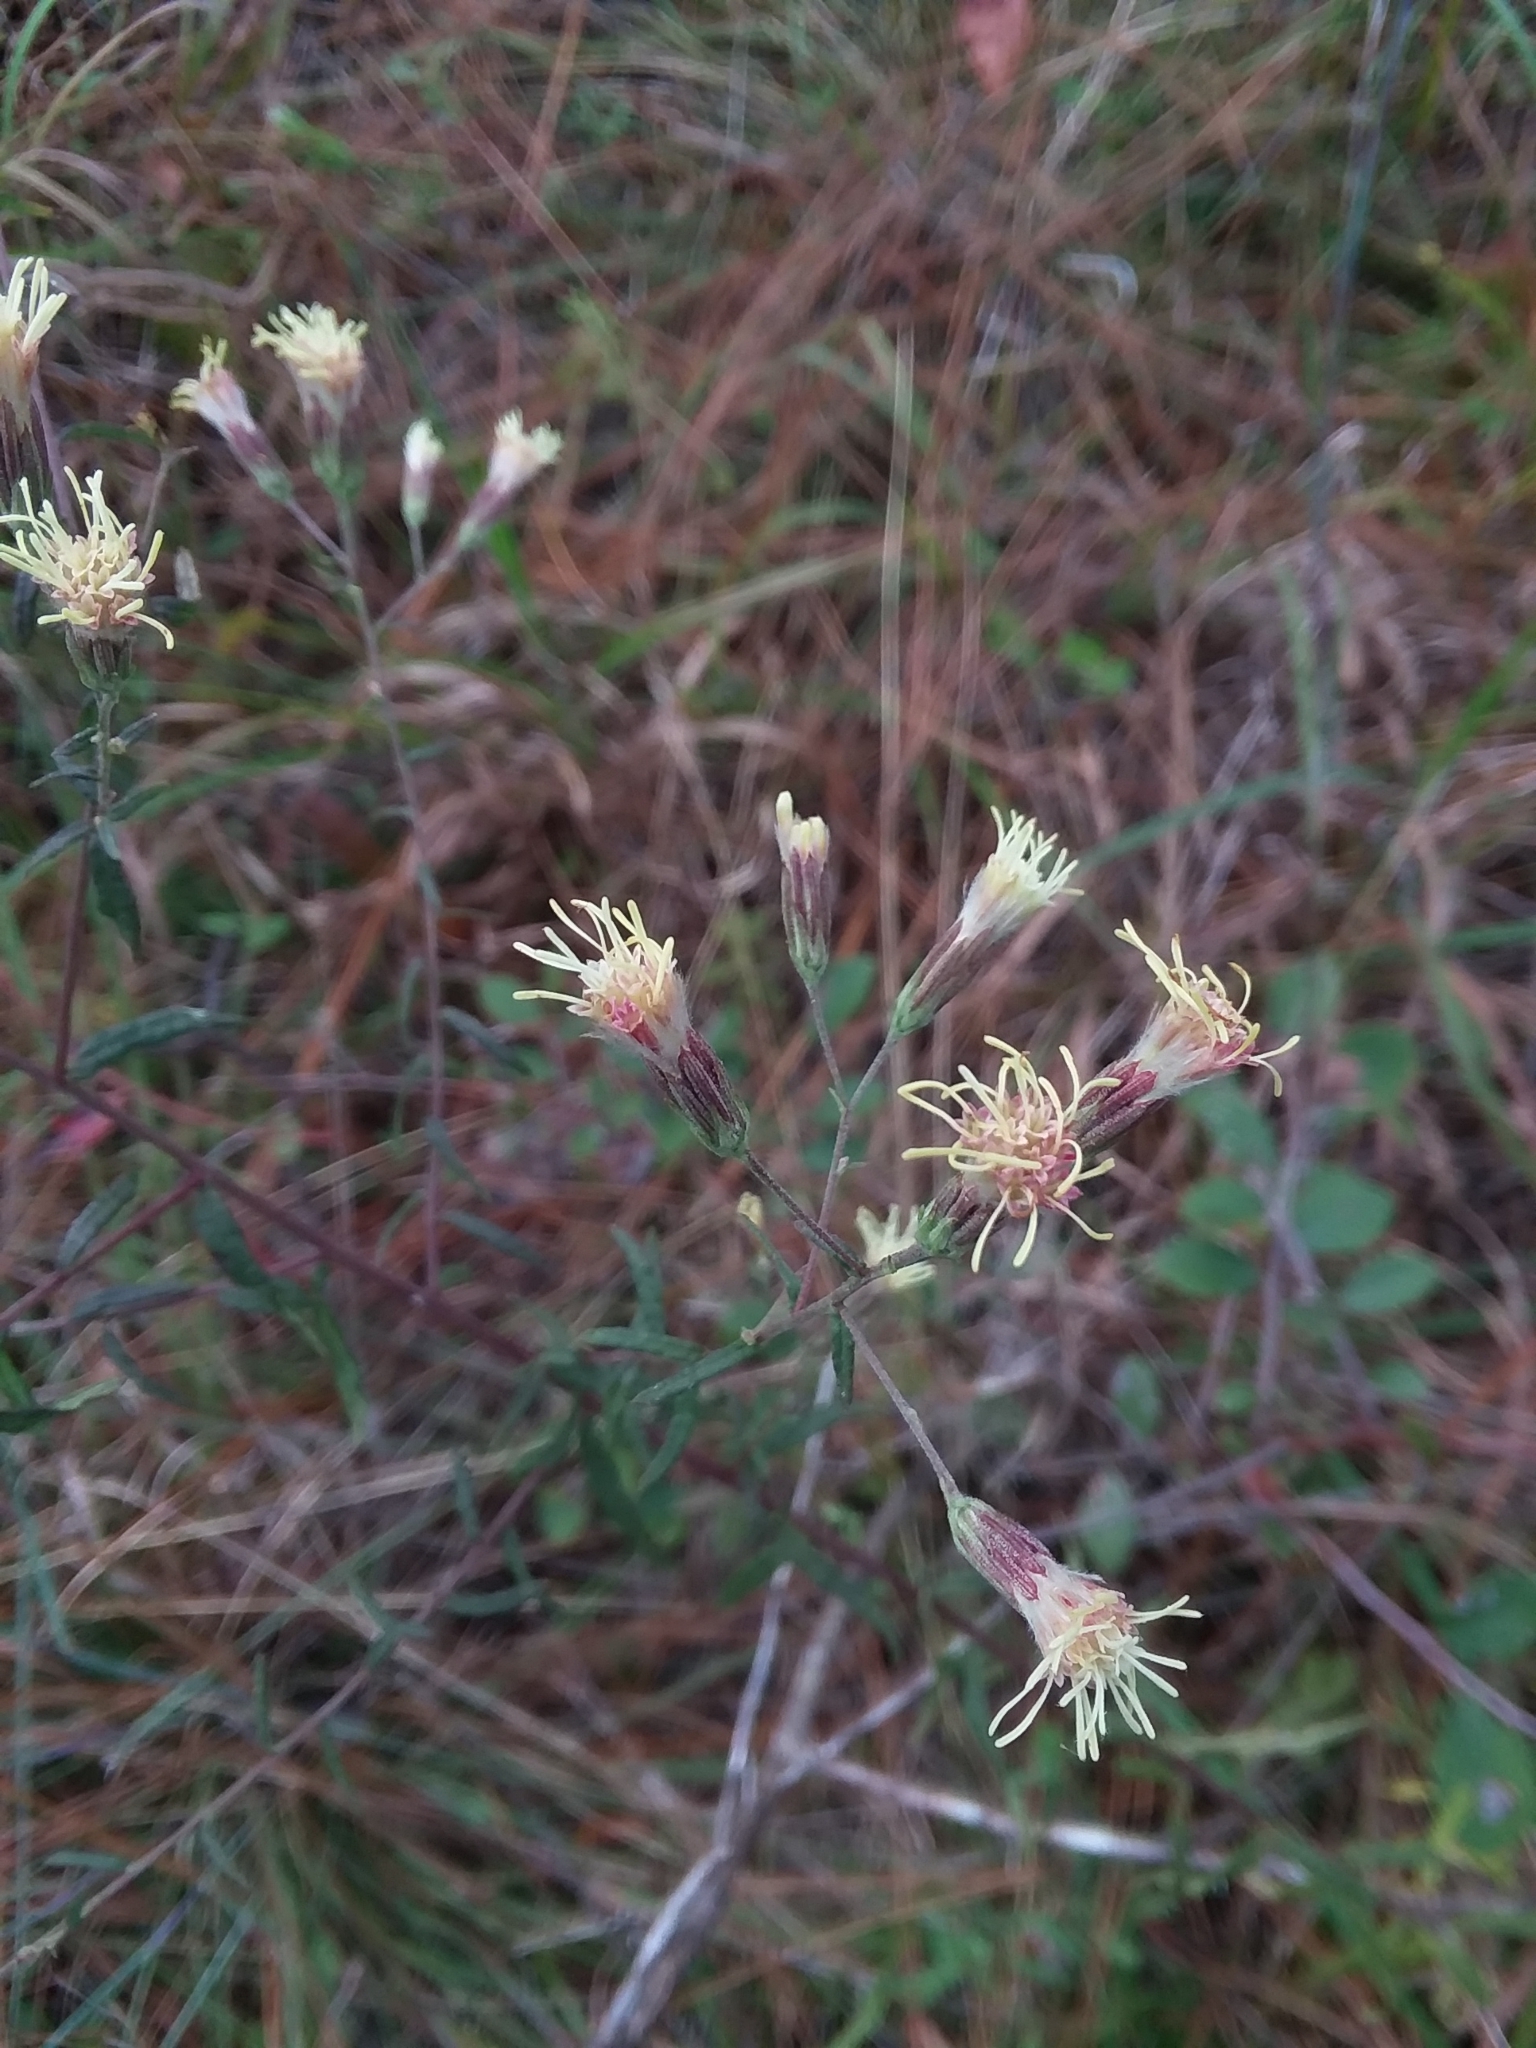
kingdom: Plantae
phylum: Tracheophyta
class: Magnoliopsida
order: Asterales
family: Asteraceae
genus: Brickellia
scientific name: Brickellia eupatorioides
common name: False boneset
